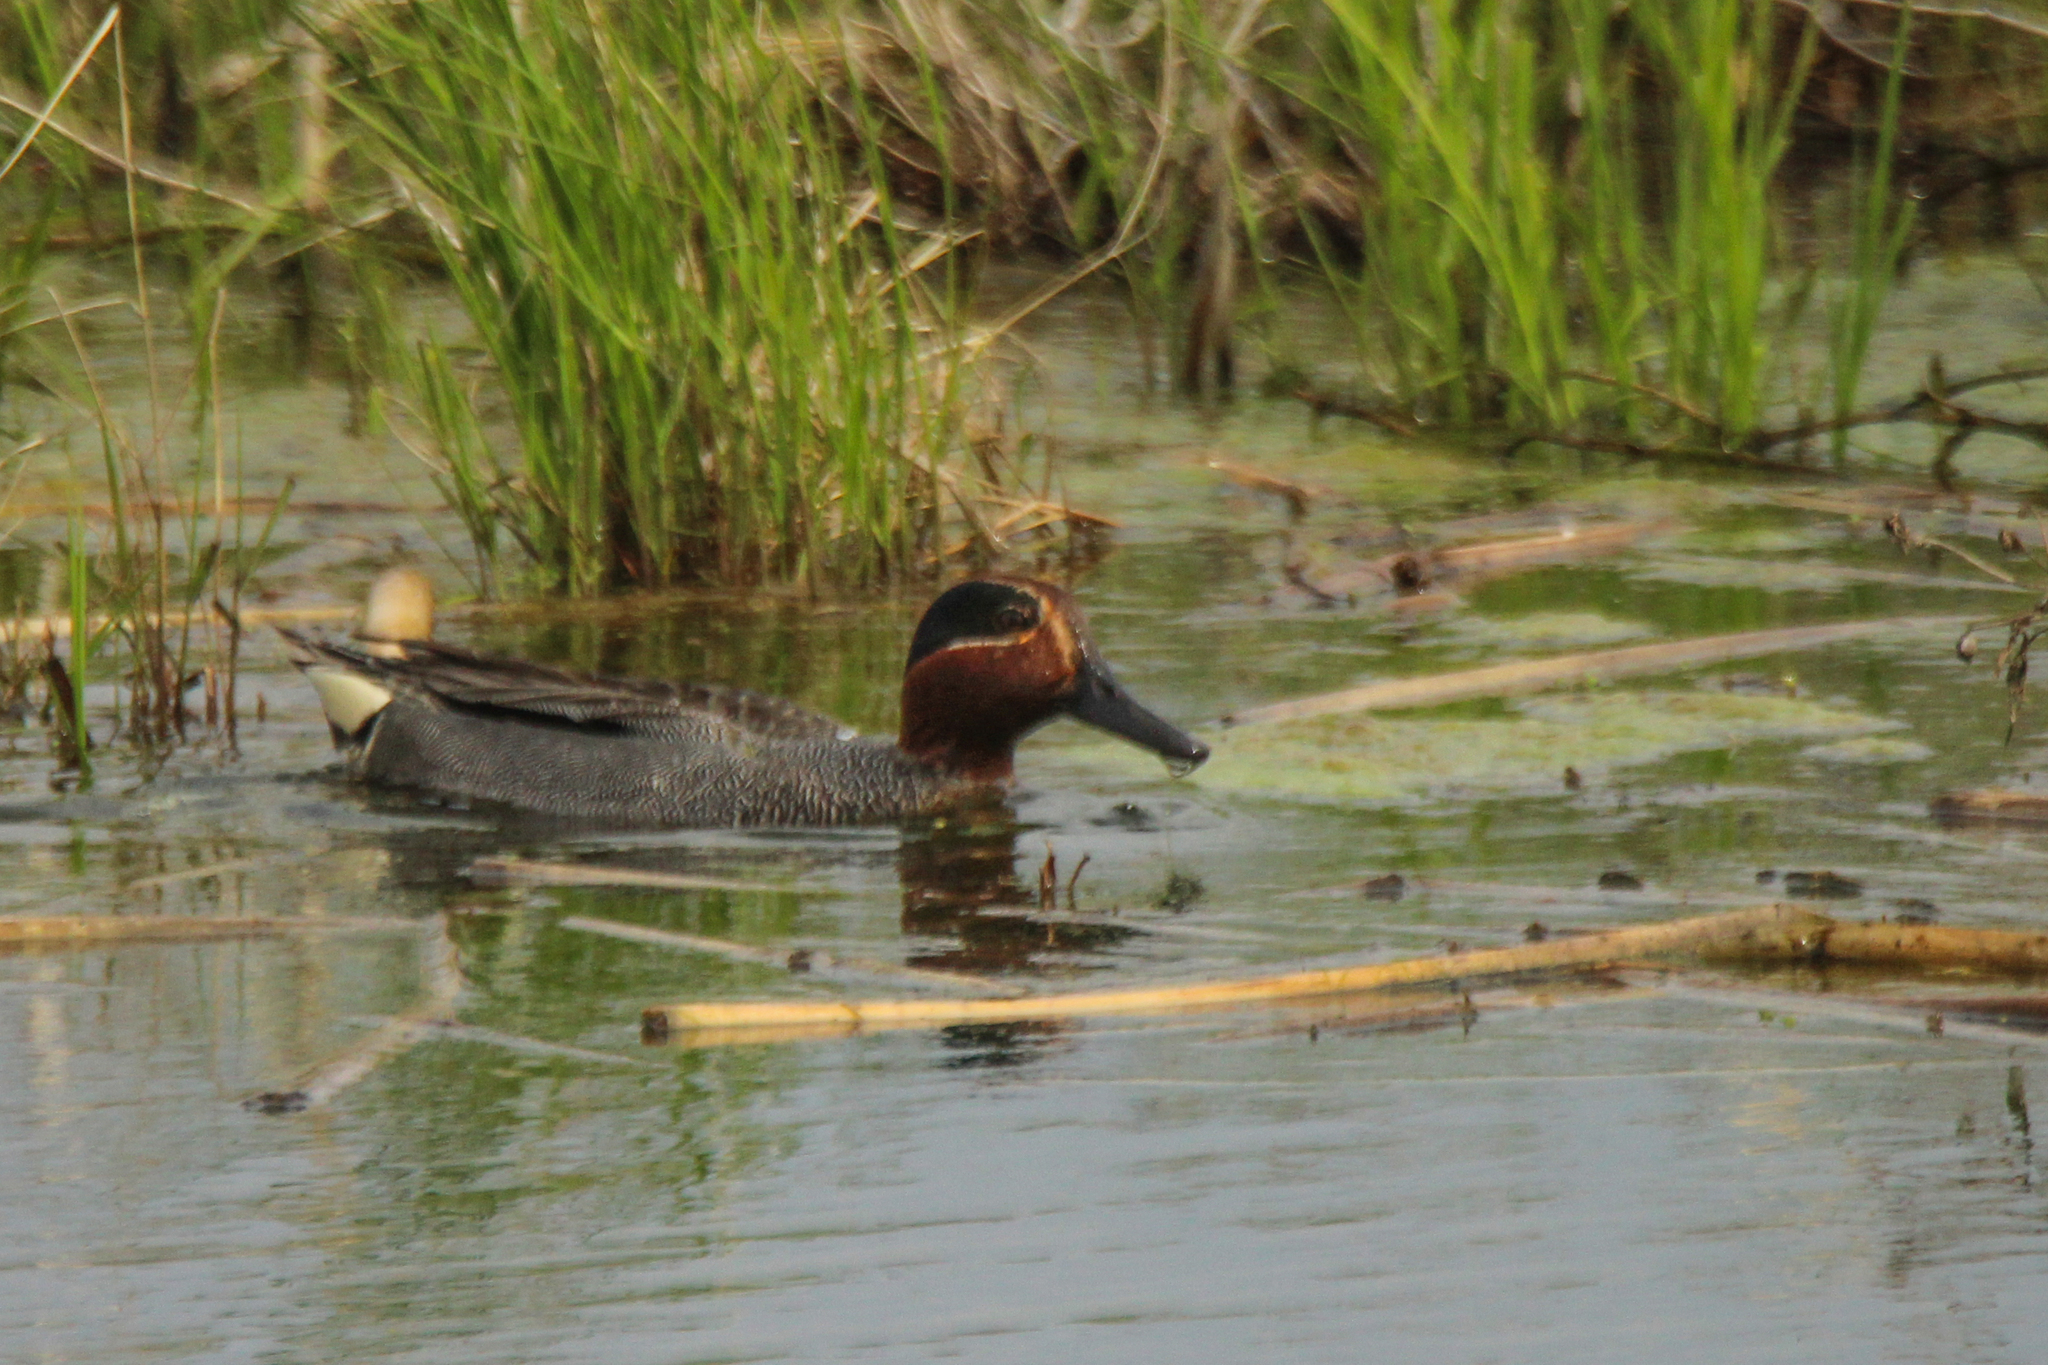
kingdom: Animalia
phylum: Chordata
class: Aves
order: Anseriformes
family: Anatidae
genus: Anas
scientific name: Anas crecca
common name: Eurasian teal
